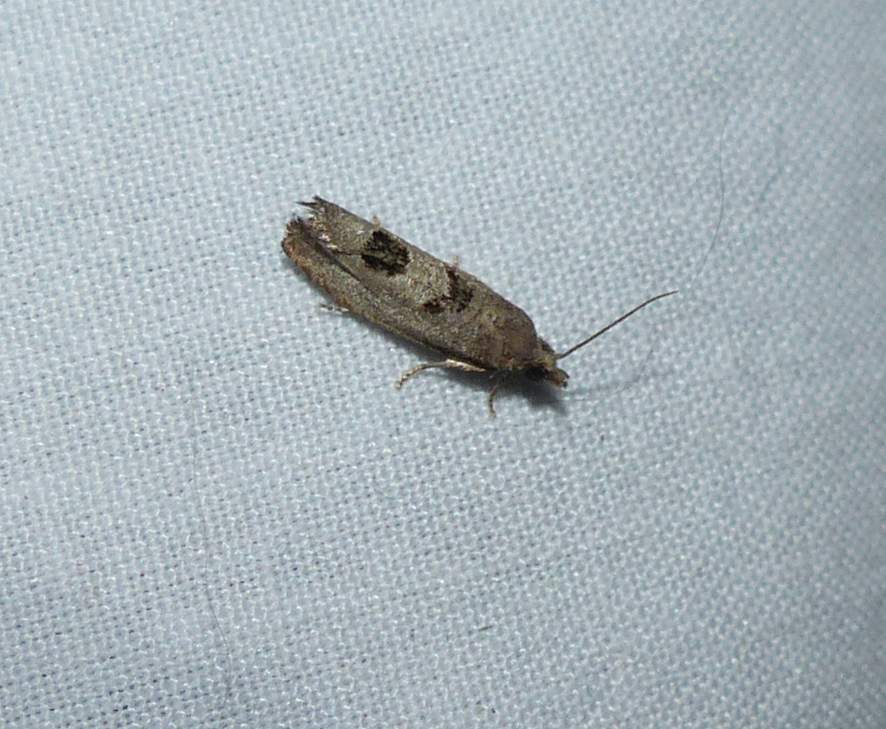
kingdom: Animalia
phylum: Arthropoda
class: Insecta
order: Lepidoptera
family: Tortricidae
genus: Eucosma
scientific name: Eucosma tomonana
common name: Aster-head eucosma moth
